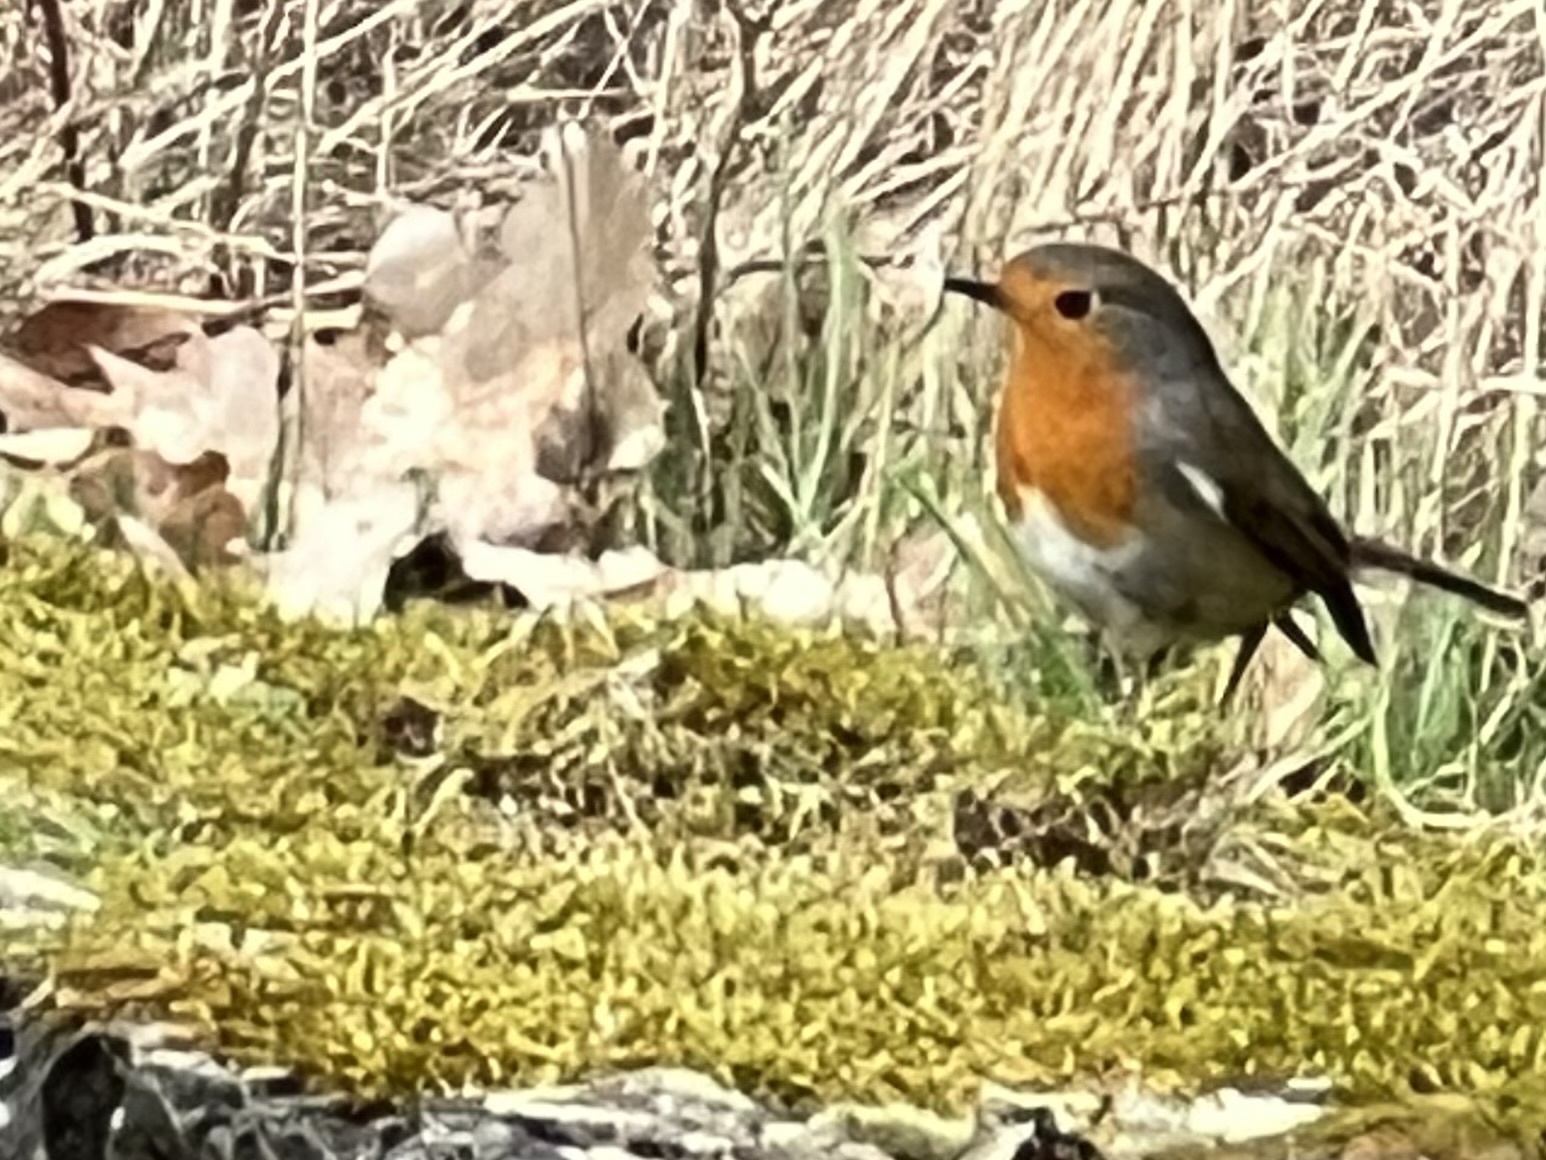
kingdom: Animalia
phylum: Chordata
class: Aves
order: Passeriformes
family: Muscicapidae
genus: Erithacus
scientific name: Erithacus rubecula
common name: European robin
